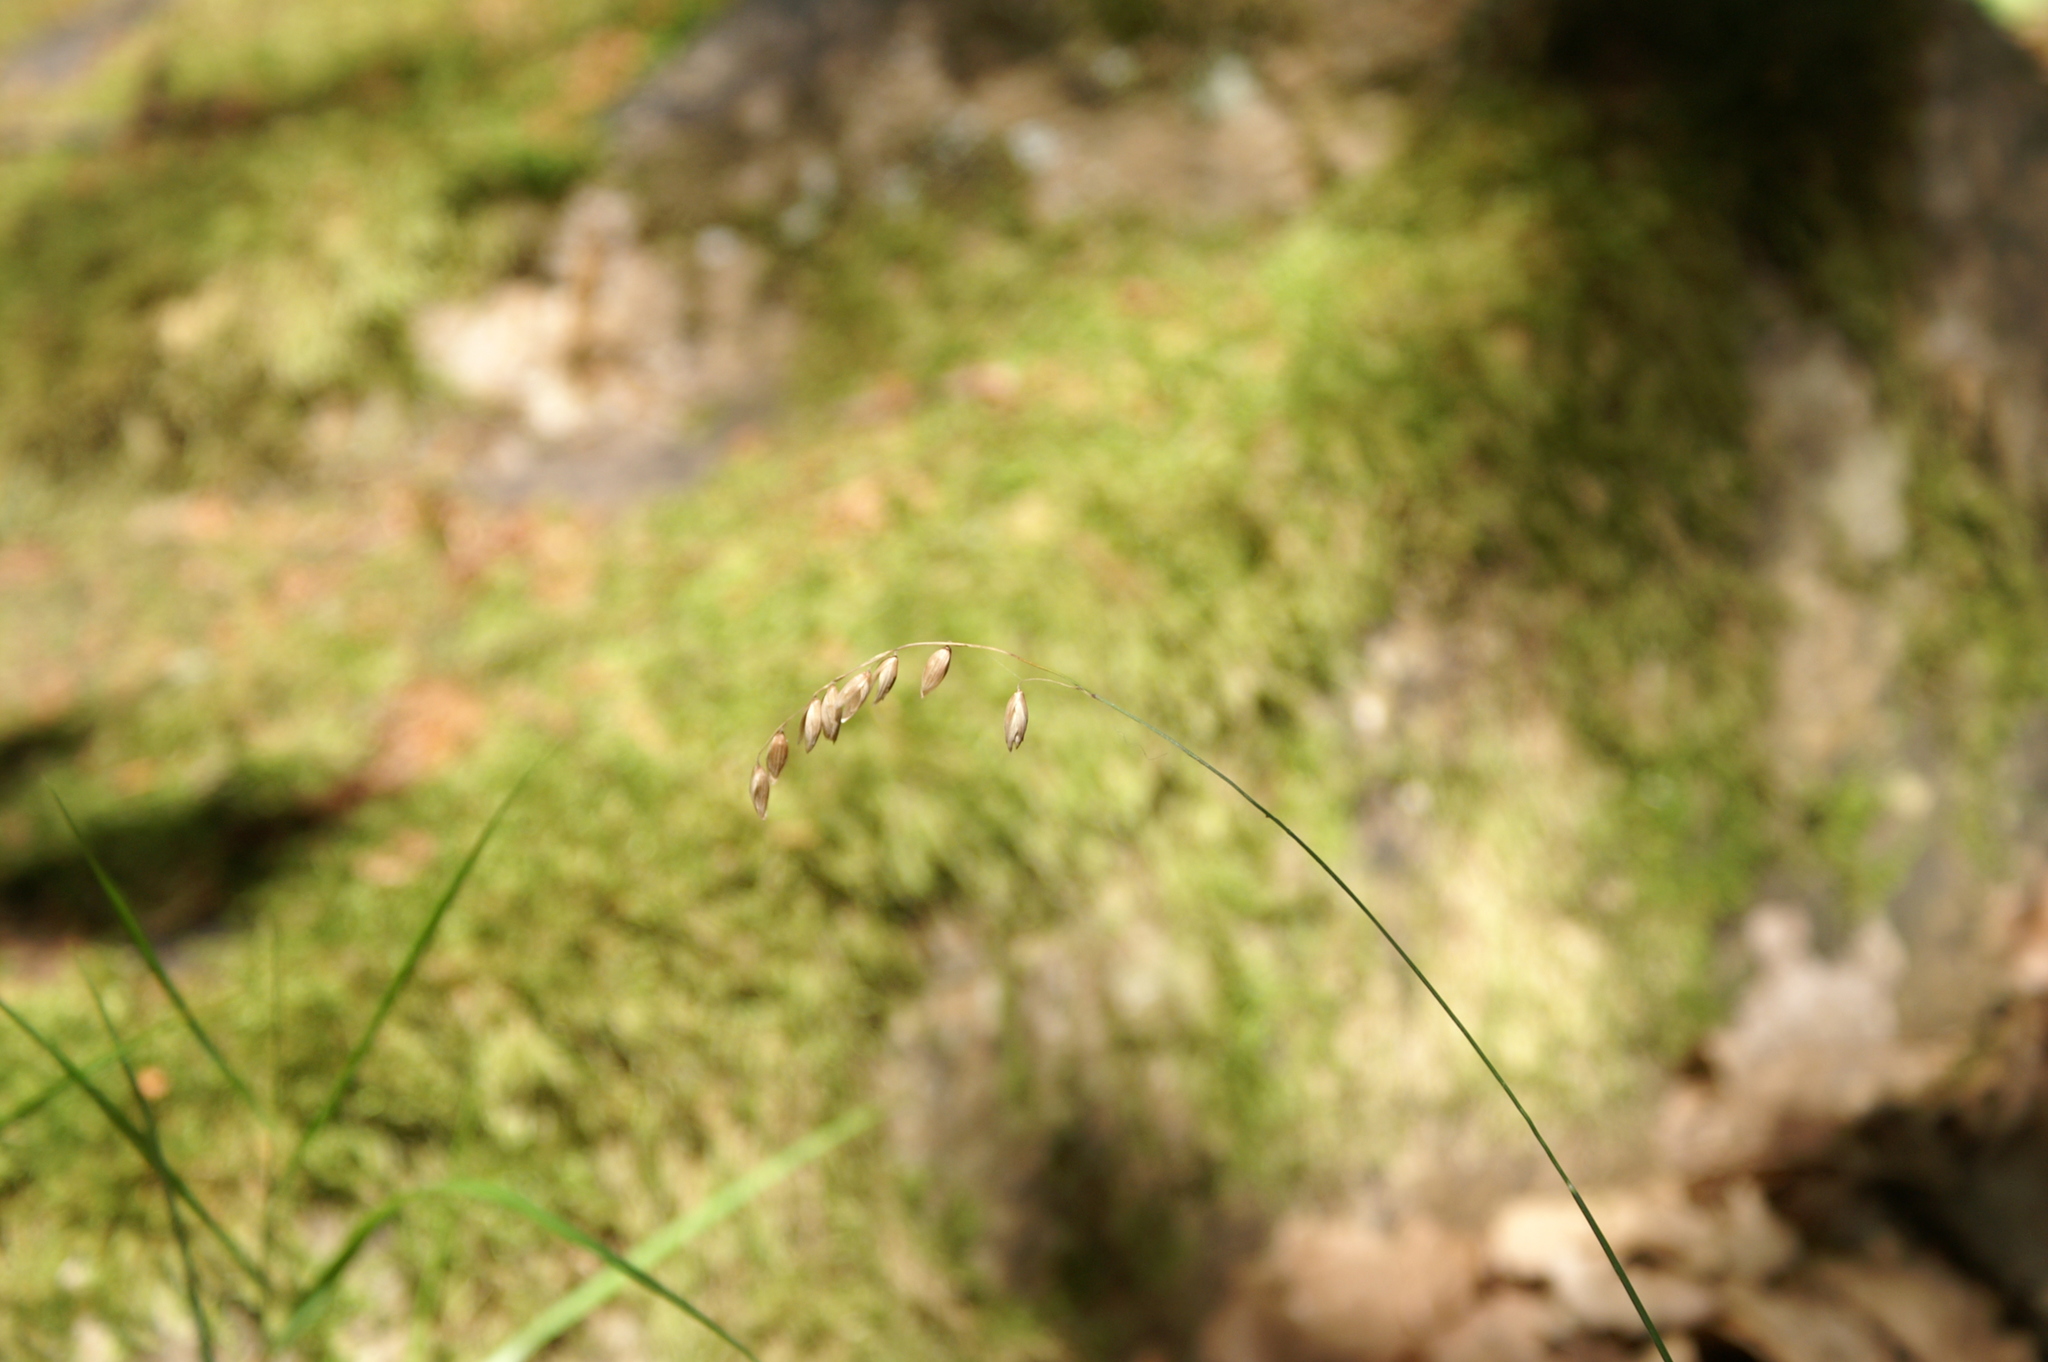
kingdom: Plantae
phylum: Tracheophyta
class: Liliopsida
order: Poales
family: Poaceae
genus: Melica
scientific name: Melica nutans
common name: Mountain melick
